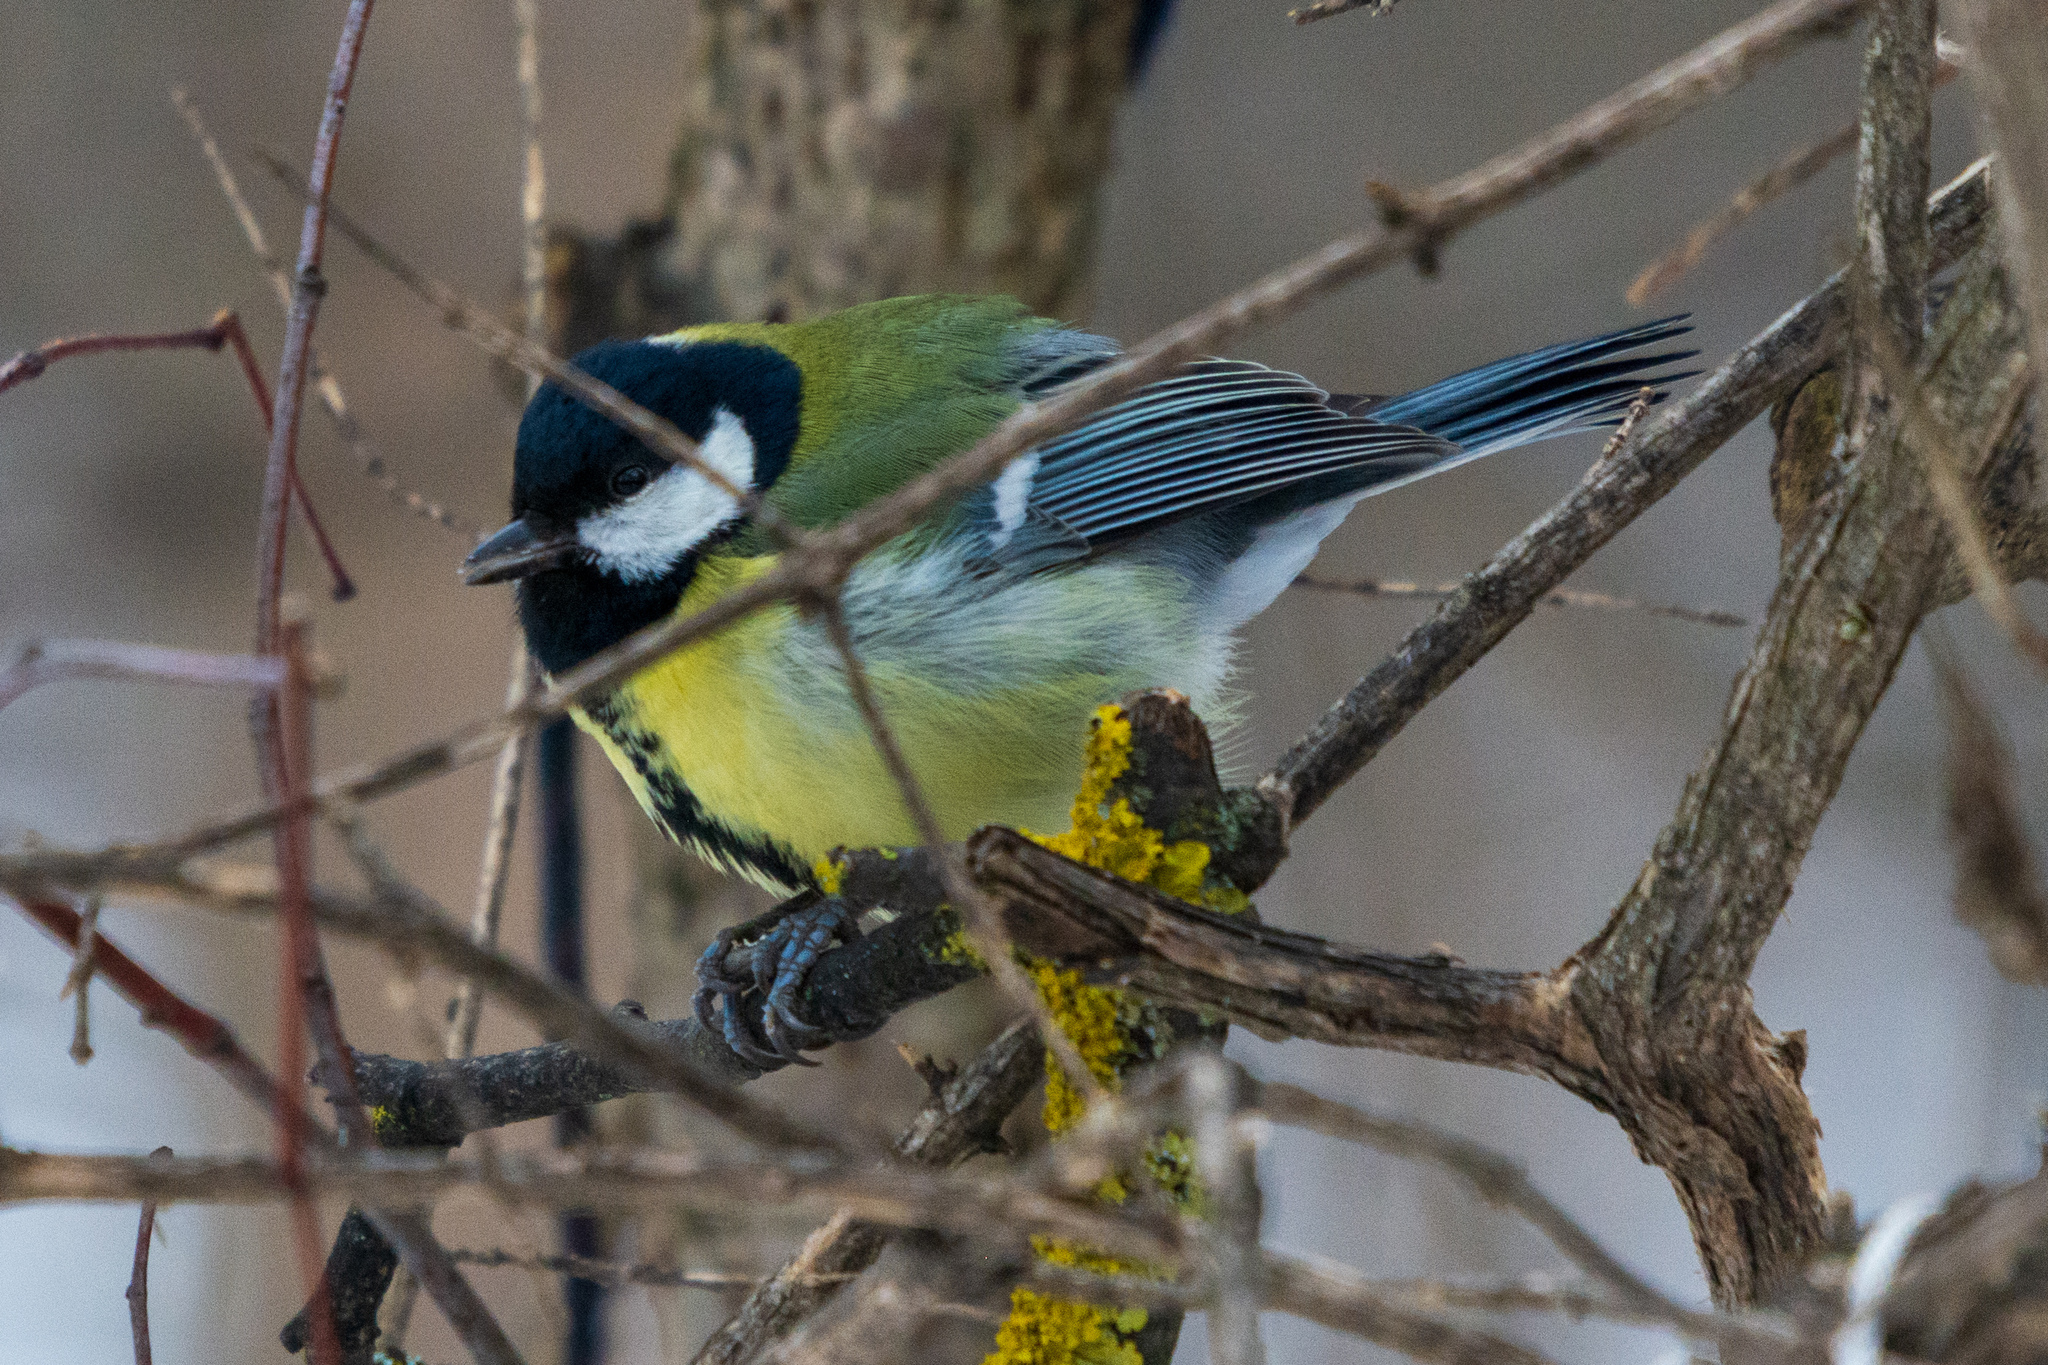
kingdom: Animalia
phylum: Chordata
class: Aves
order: Passeriformes
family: Paridae
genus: Parus
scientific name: Parus major
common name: Great tit
